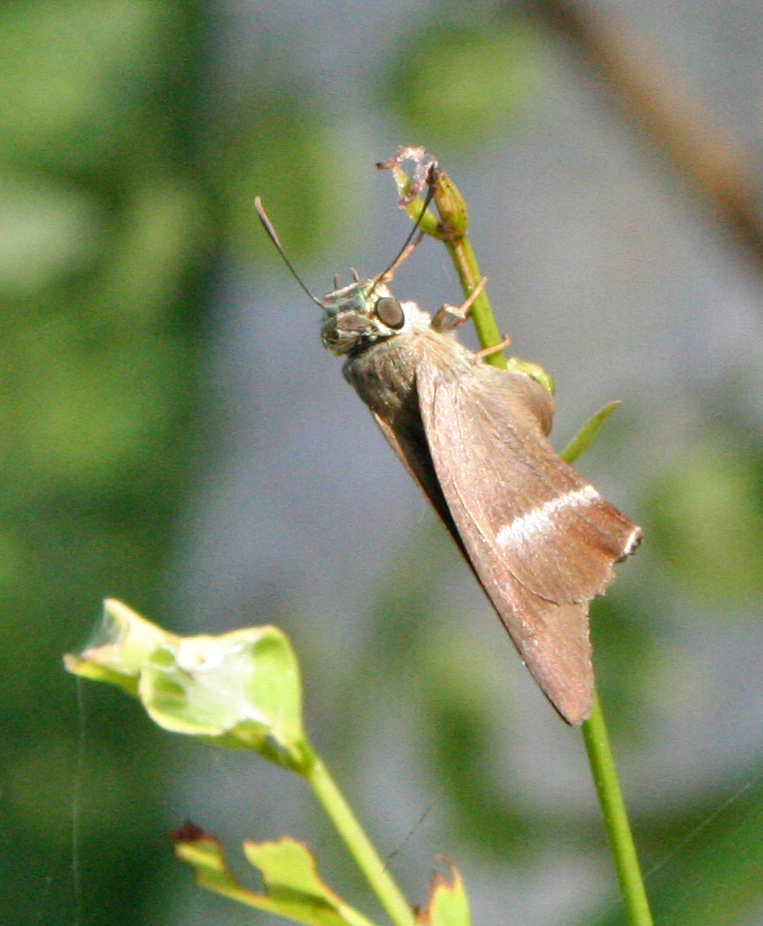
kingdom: Animalia
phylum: Arthropoda
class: Insecta
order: Lepidoptera
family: Hesperiidae
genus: Hasora
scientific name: Hasora chromus
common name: Common banded awl
